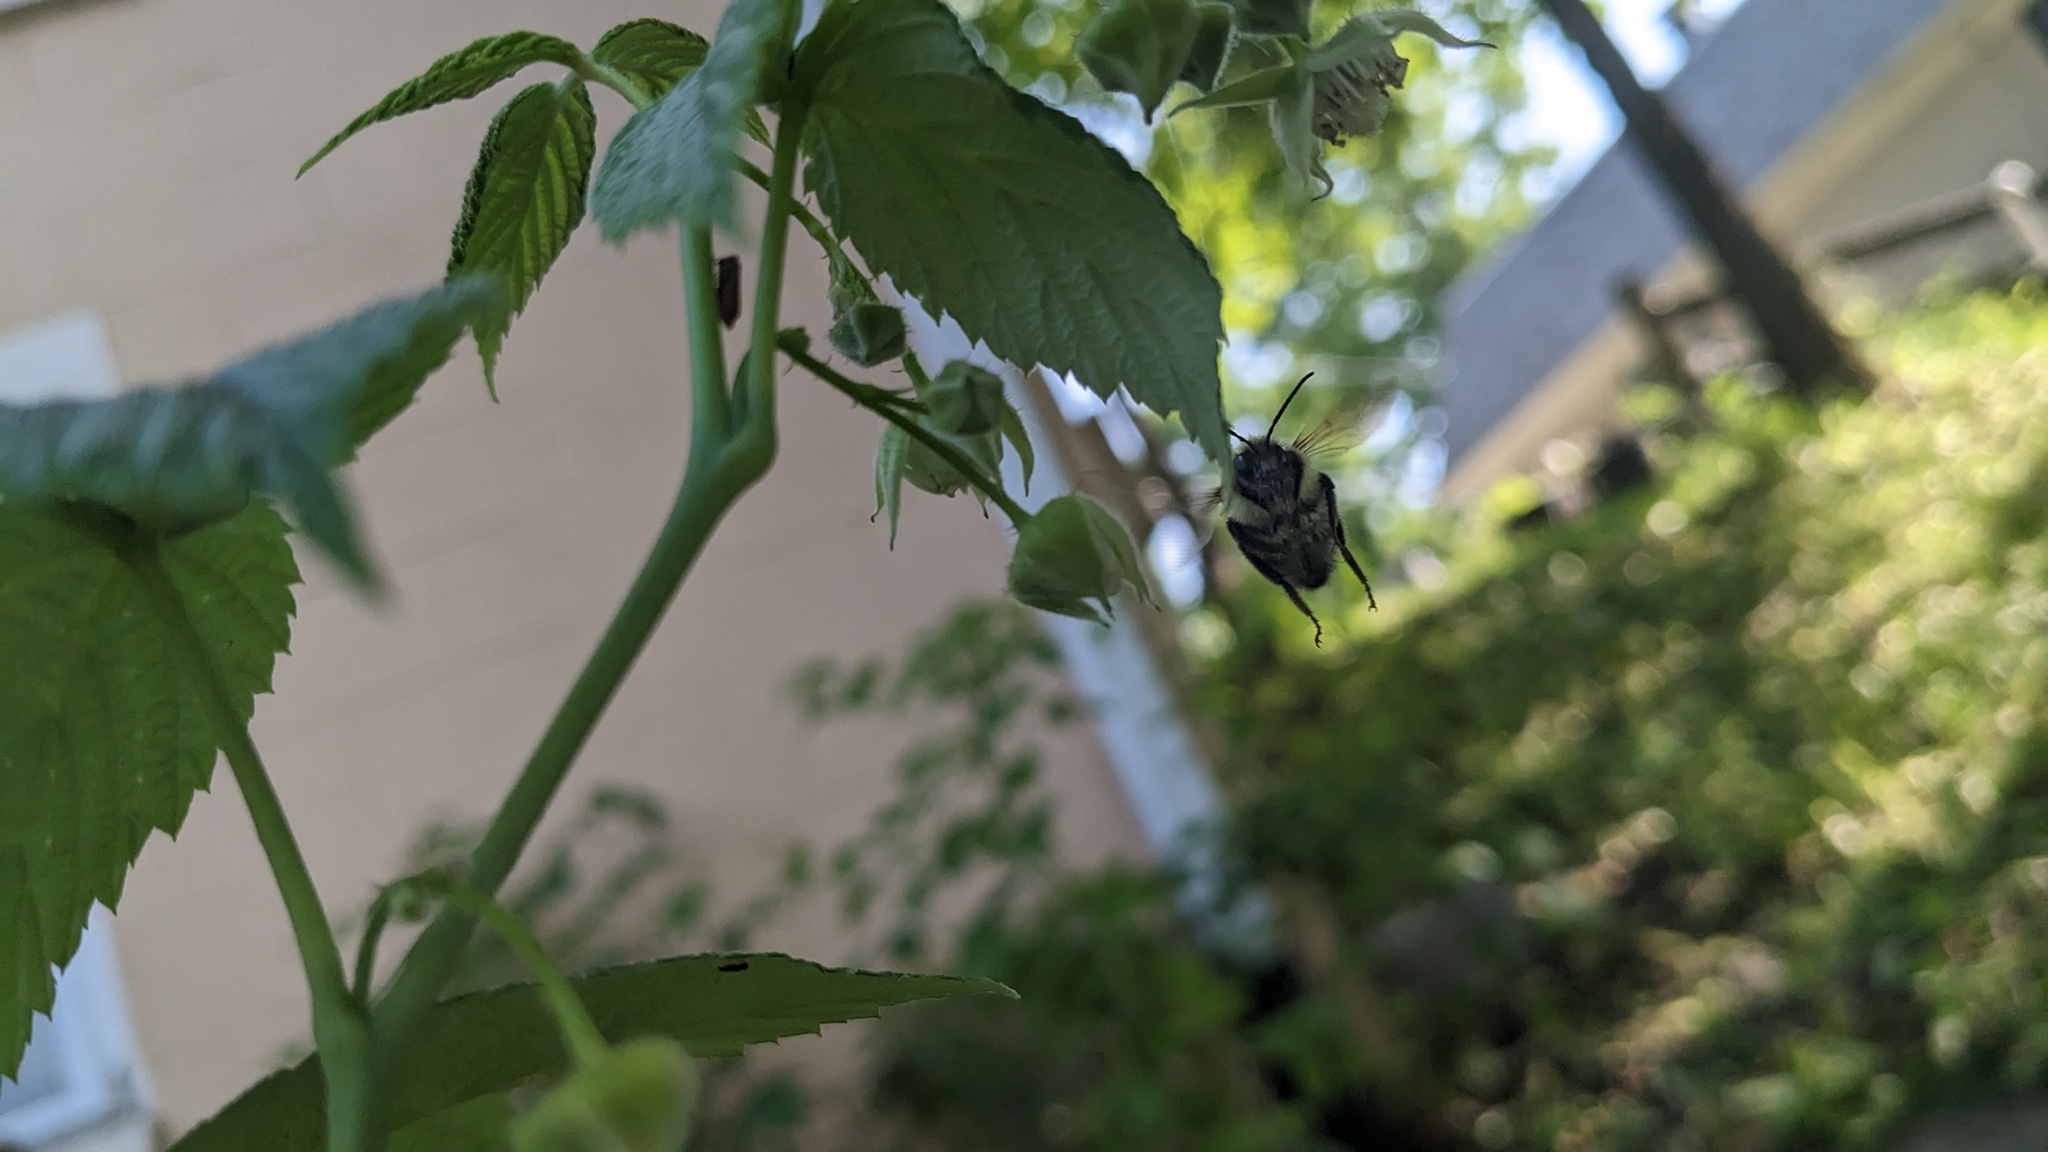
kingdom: Animalia
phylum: Arthropoda
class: Insecta
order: Hymenoptera
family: Apidae
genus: Bombus
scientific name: Bombus bimaculatus
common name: Two-spotted bumble bee
